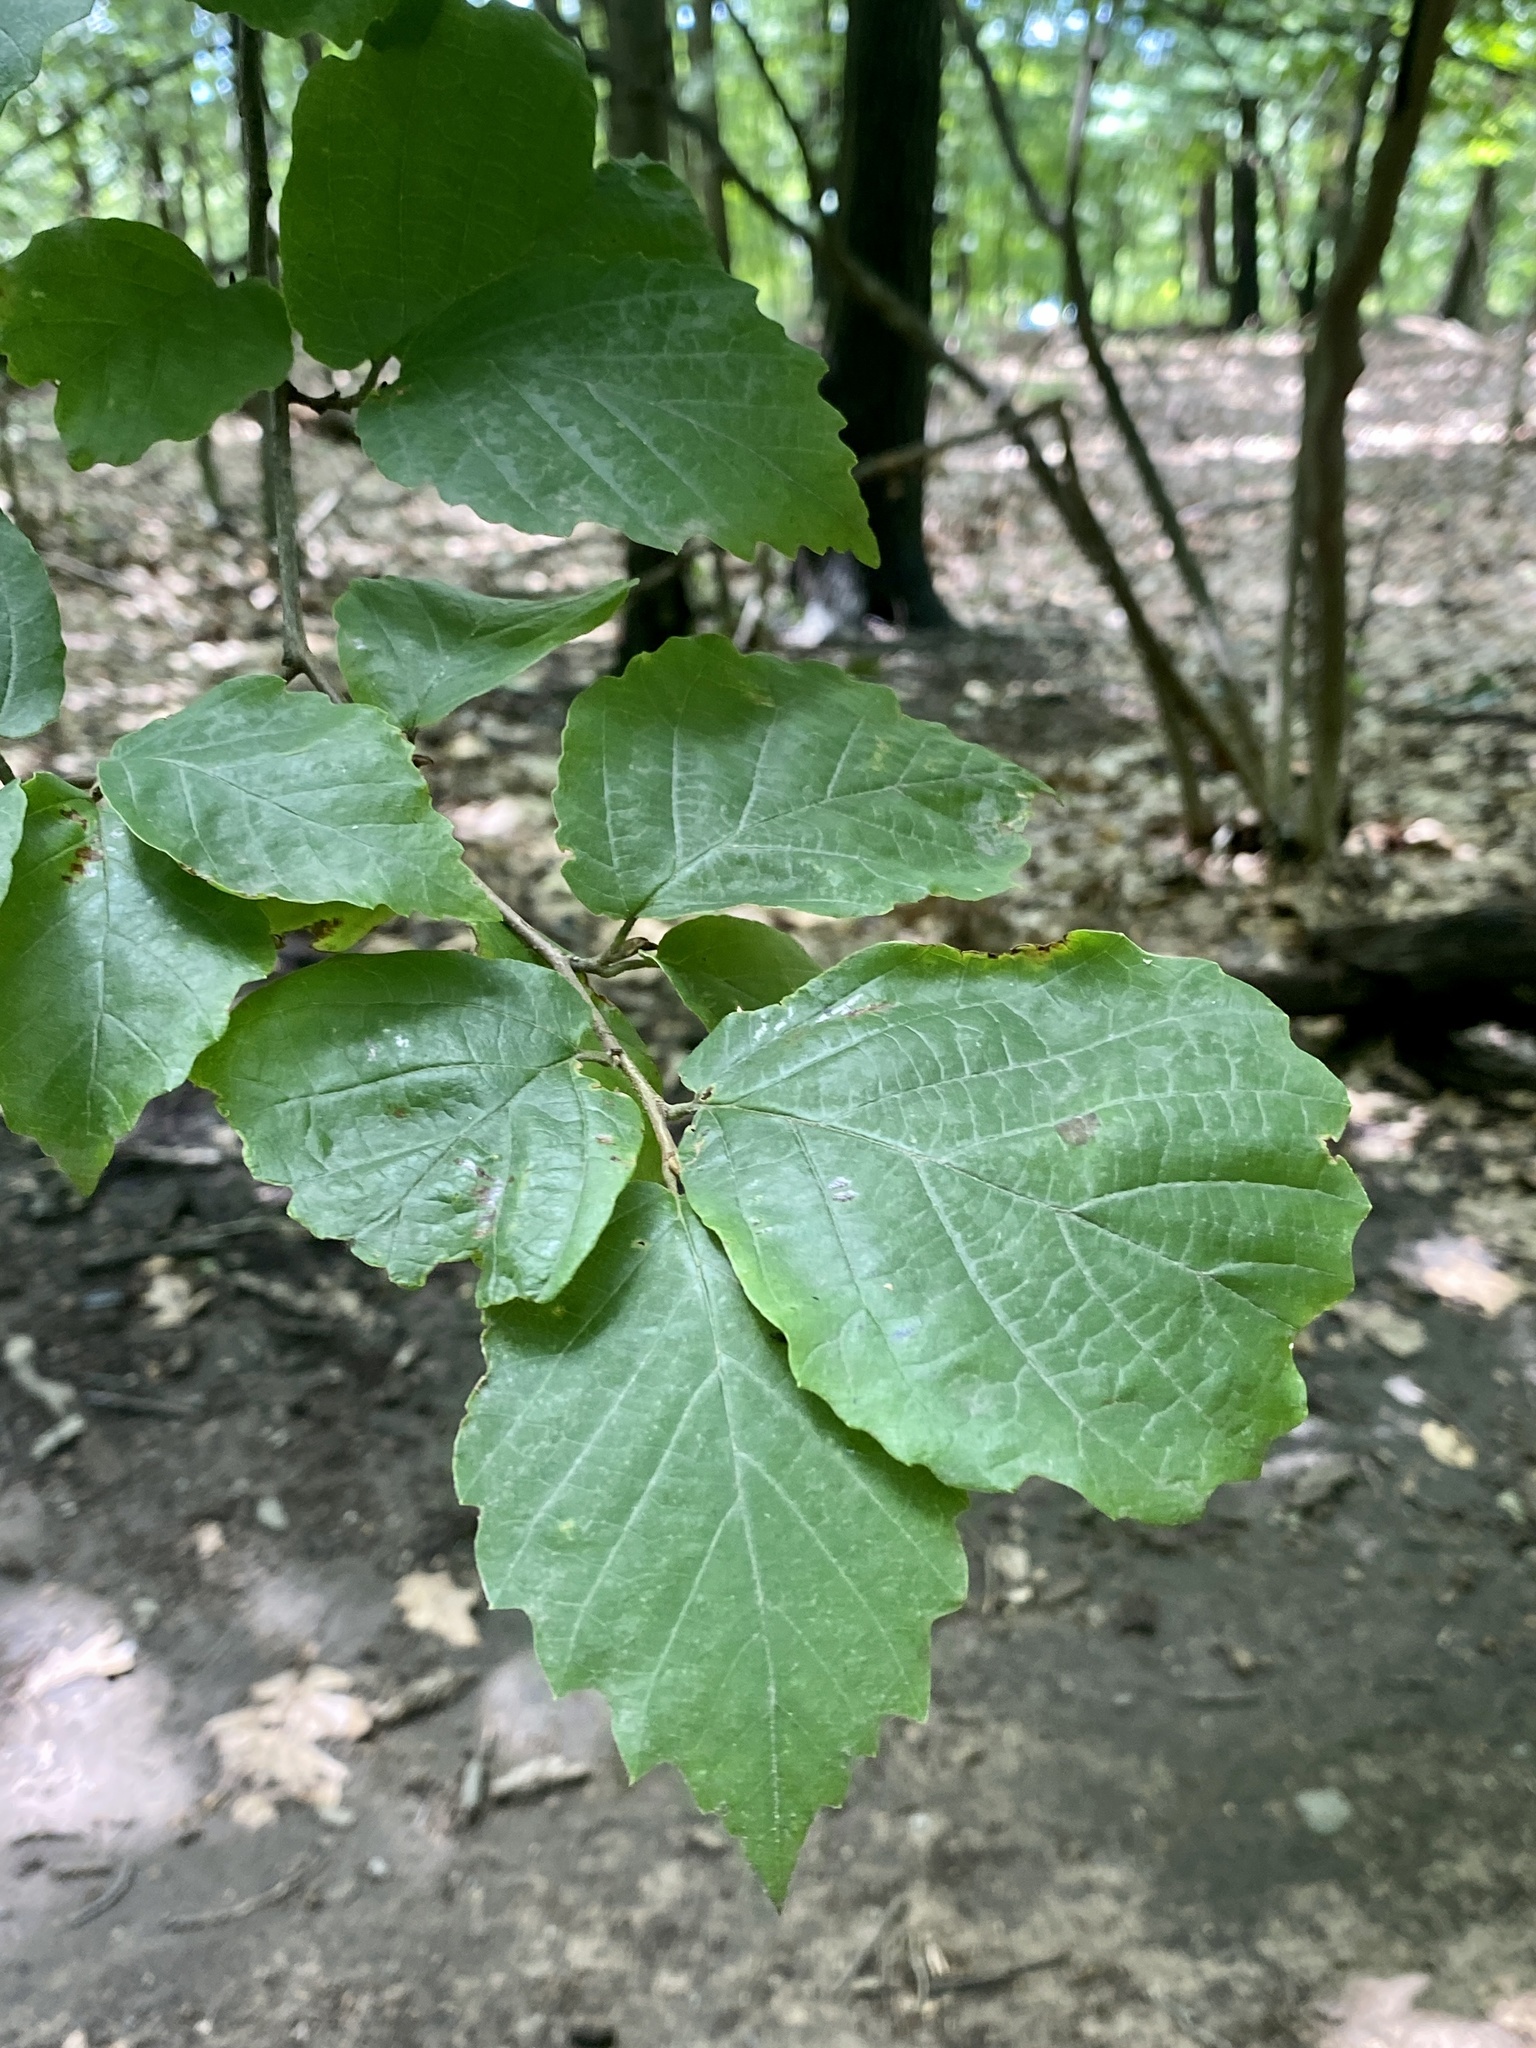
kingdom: Plantae
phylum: Tracheophyta
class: Magnoliopsida
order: Saxifragales
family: Hamamelidaceae
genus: Hamamelis
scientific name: Hamamelis virginiana
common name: Witch-hazel
